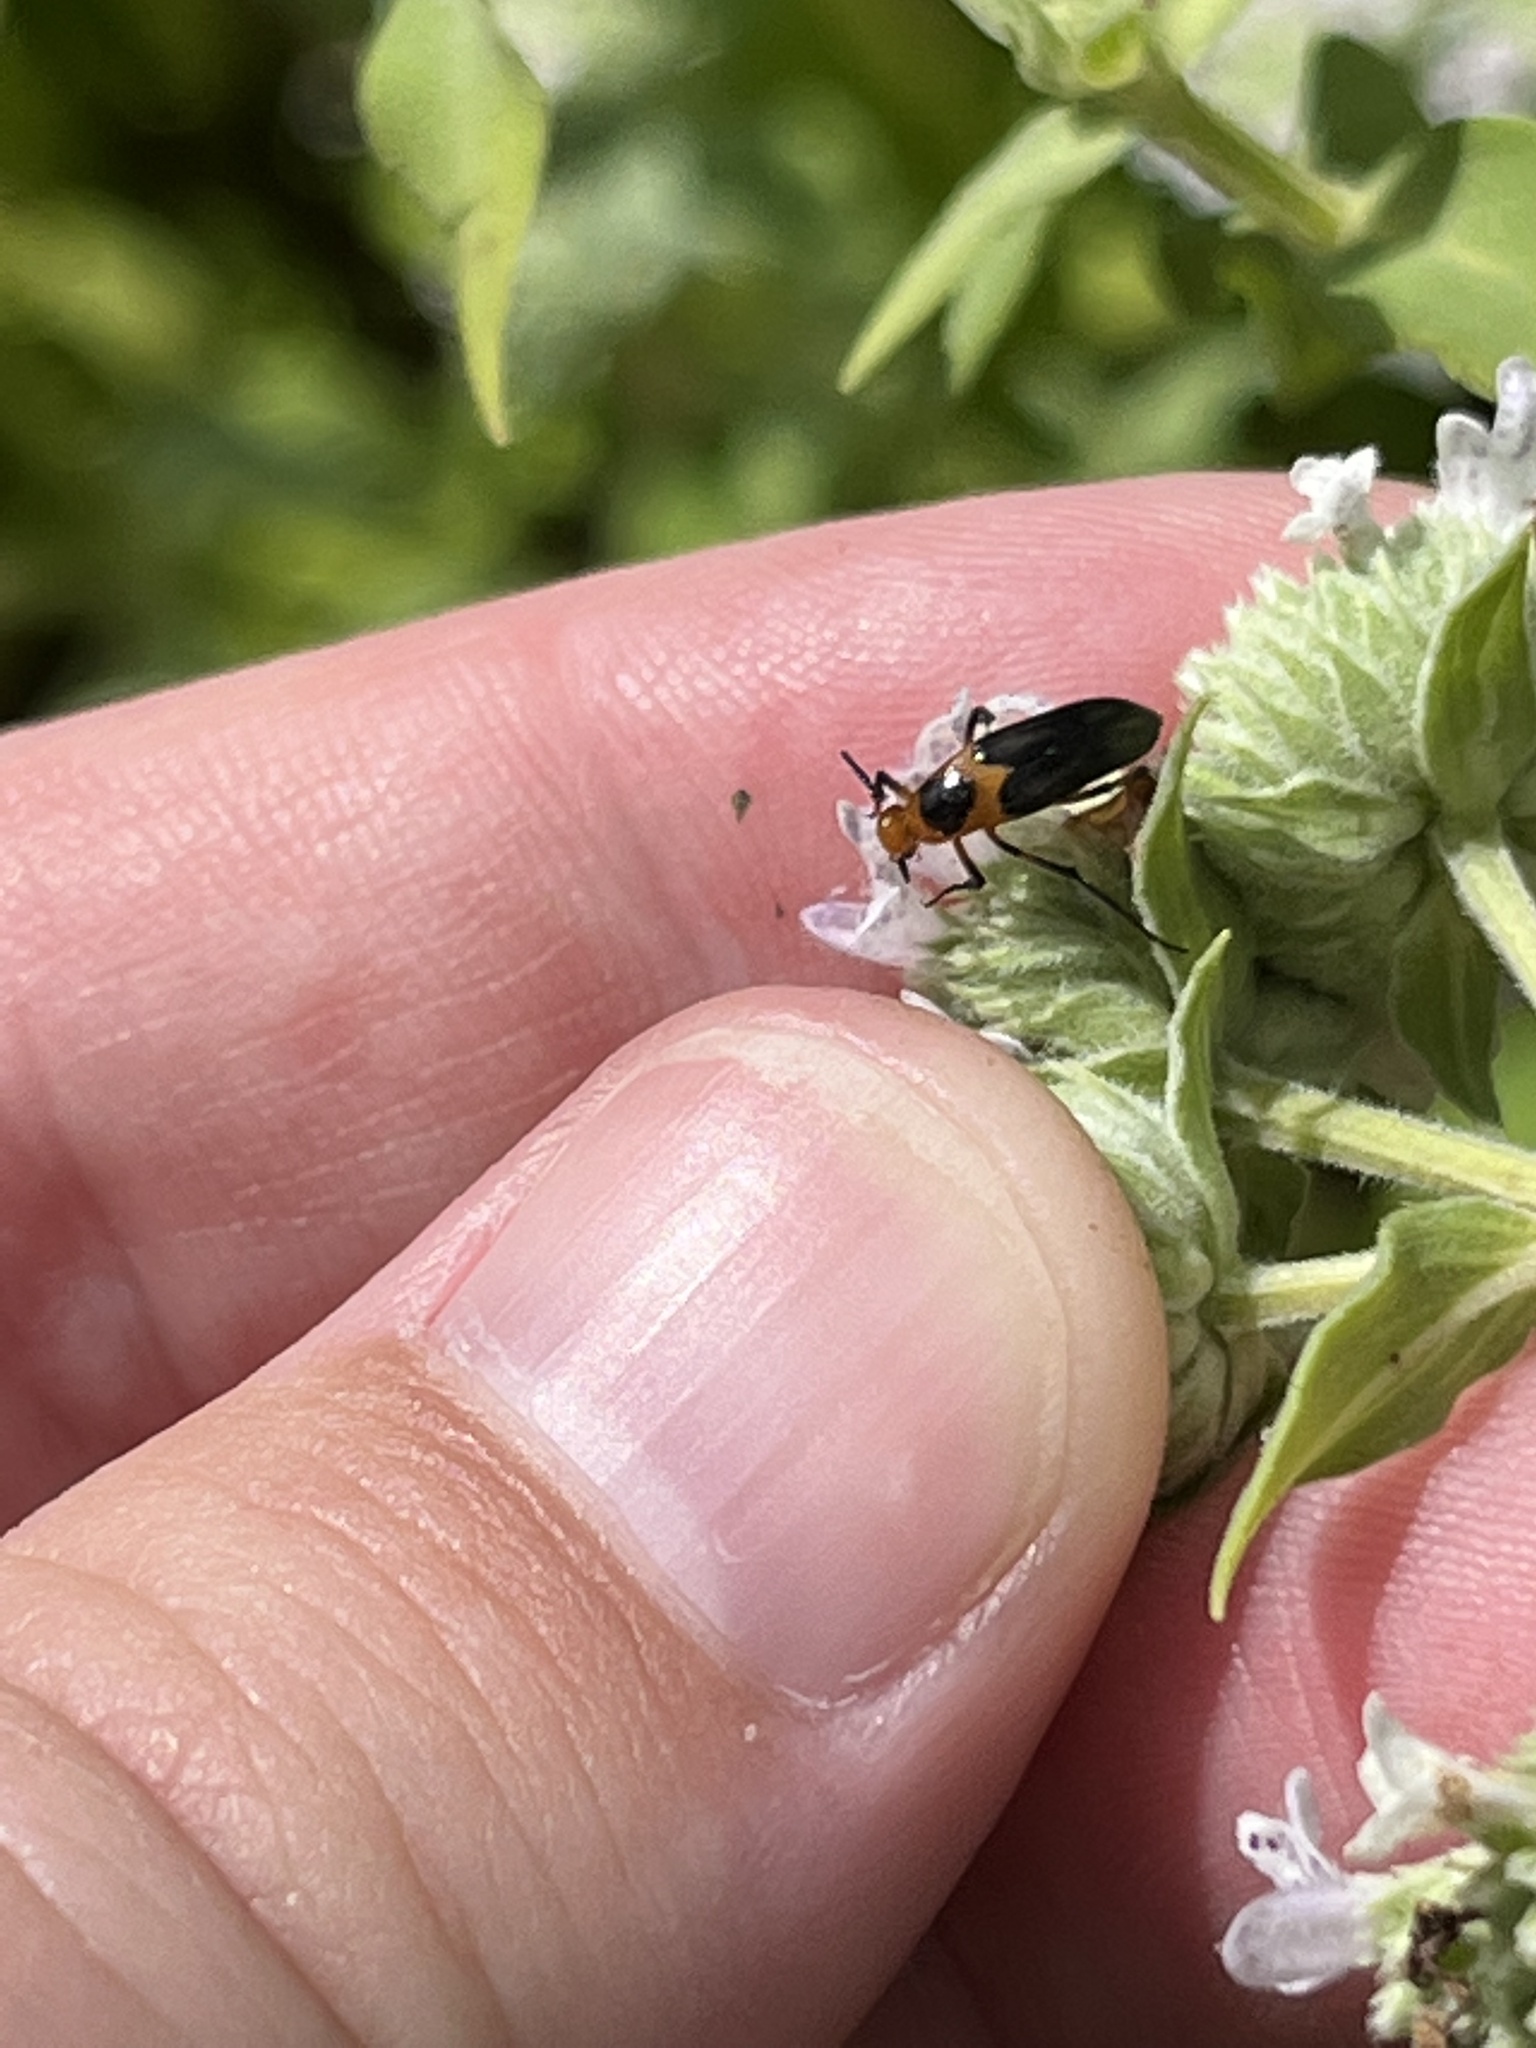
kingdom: Animalia
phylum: Arthropoda
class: Insecta
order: Coleoptera
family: Ripiphoridae
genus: Macrosiagon
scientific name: Macrosiagon limbatum
